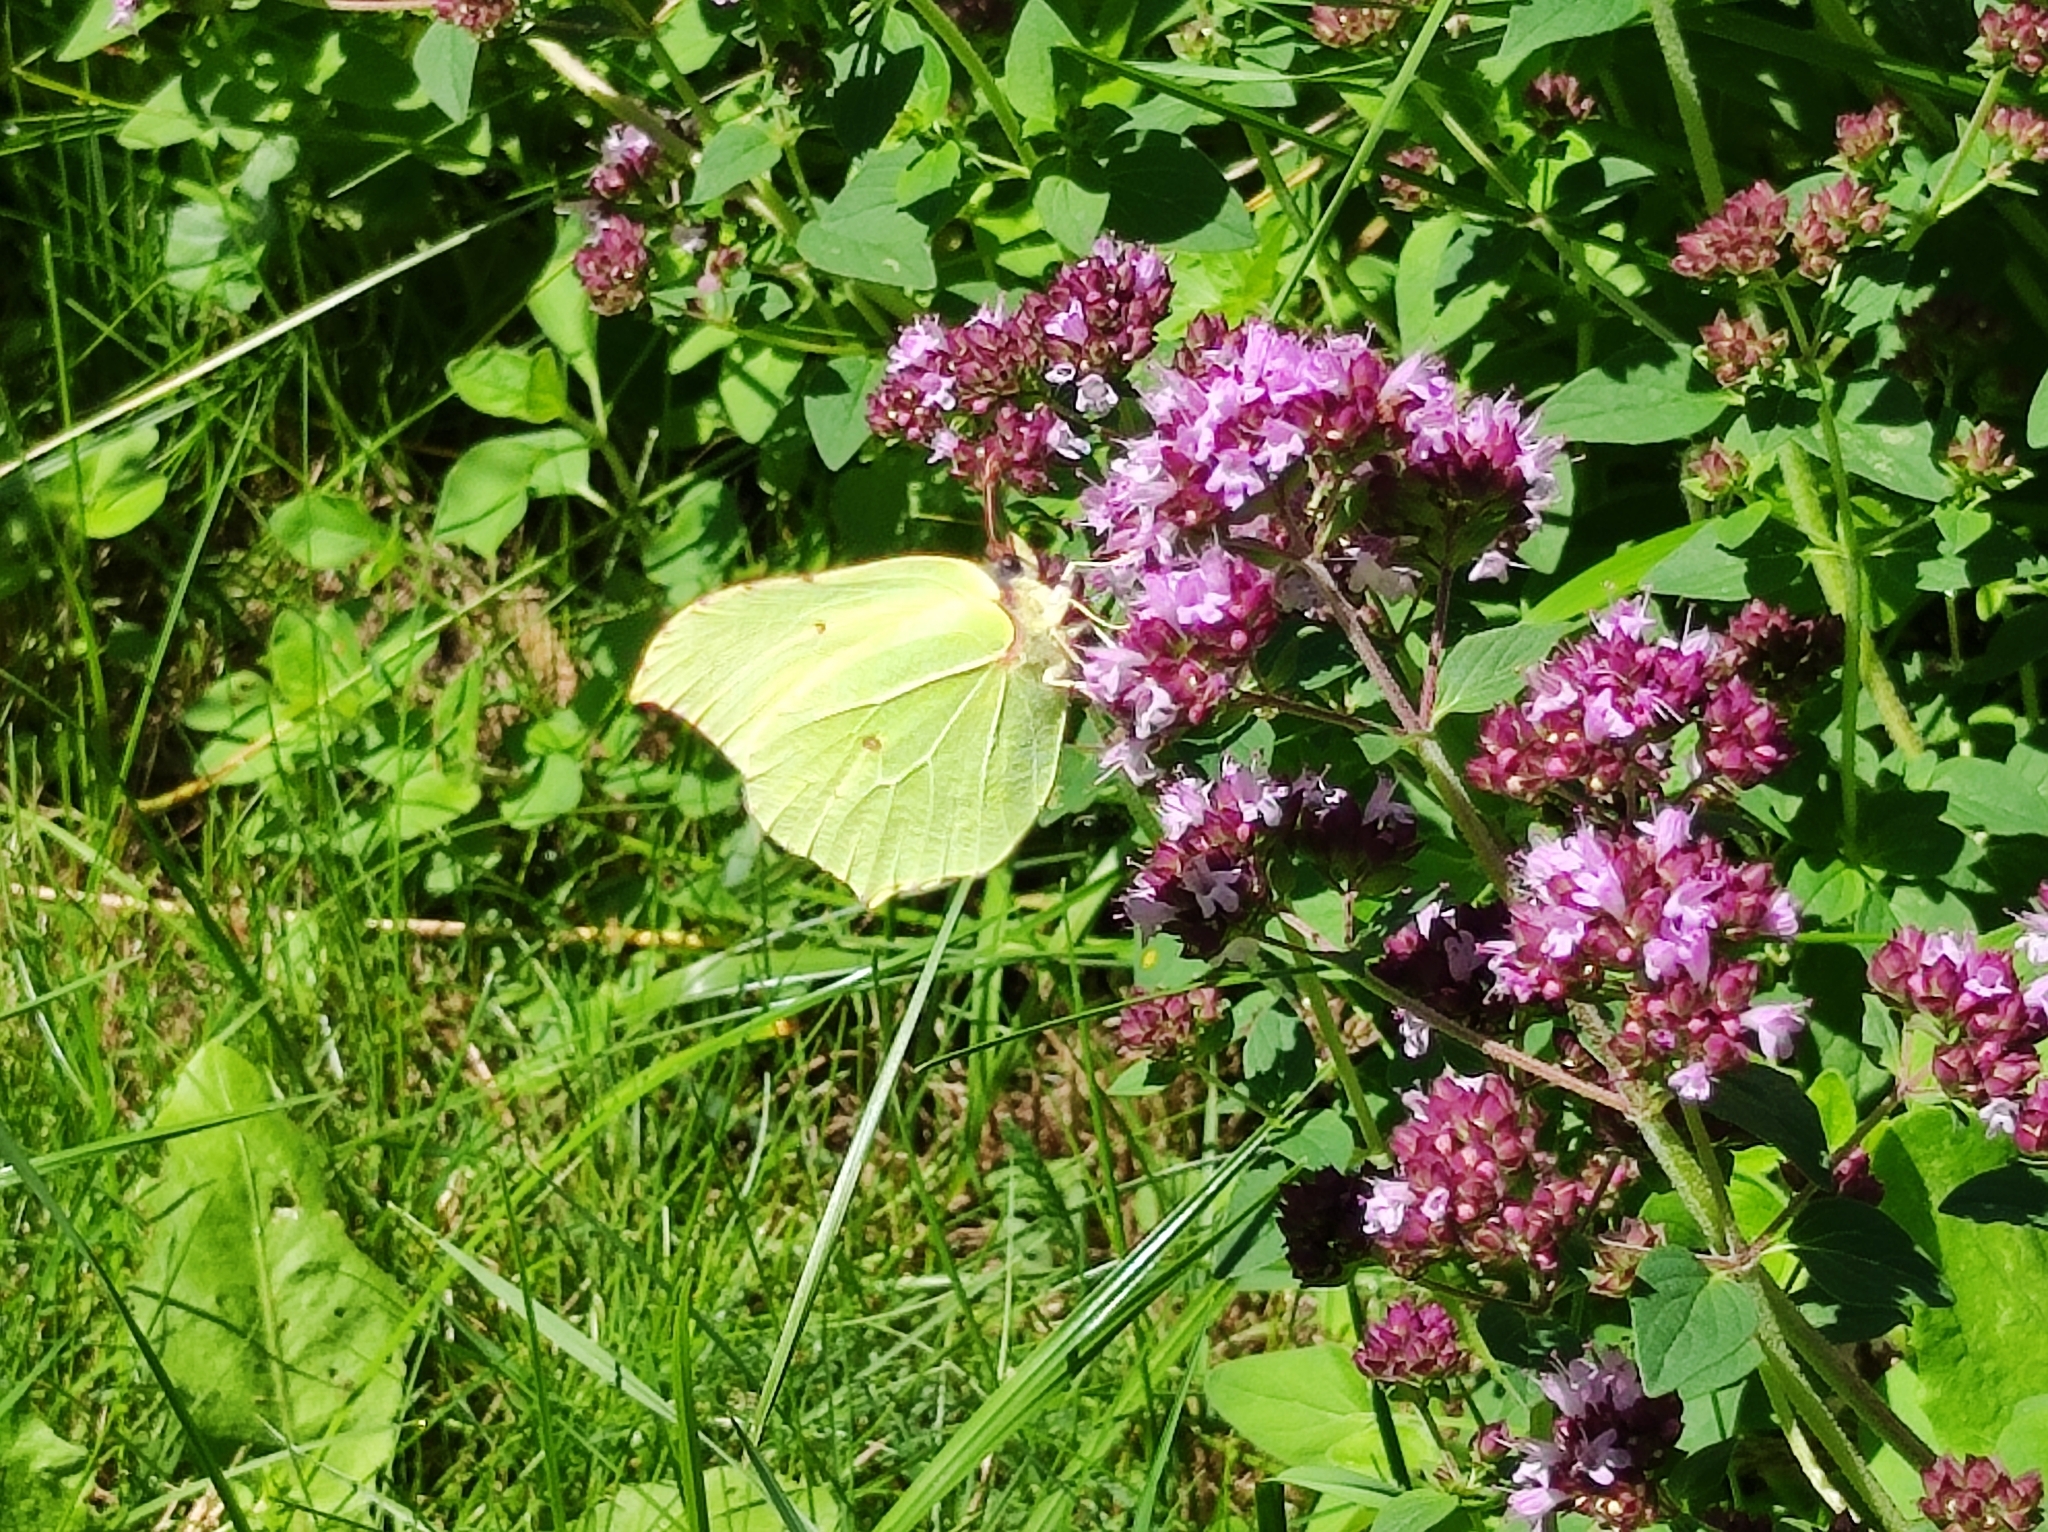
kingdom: Animalia
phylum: Arthropoda
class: Insecta
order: Lepidoptera
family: Pieridae
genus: Gonepteryx
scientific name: Gonepteryx rhamni
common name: Brimstone
